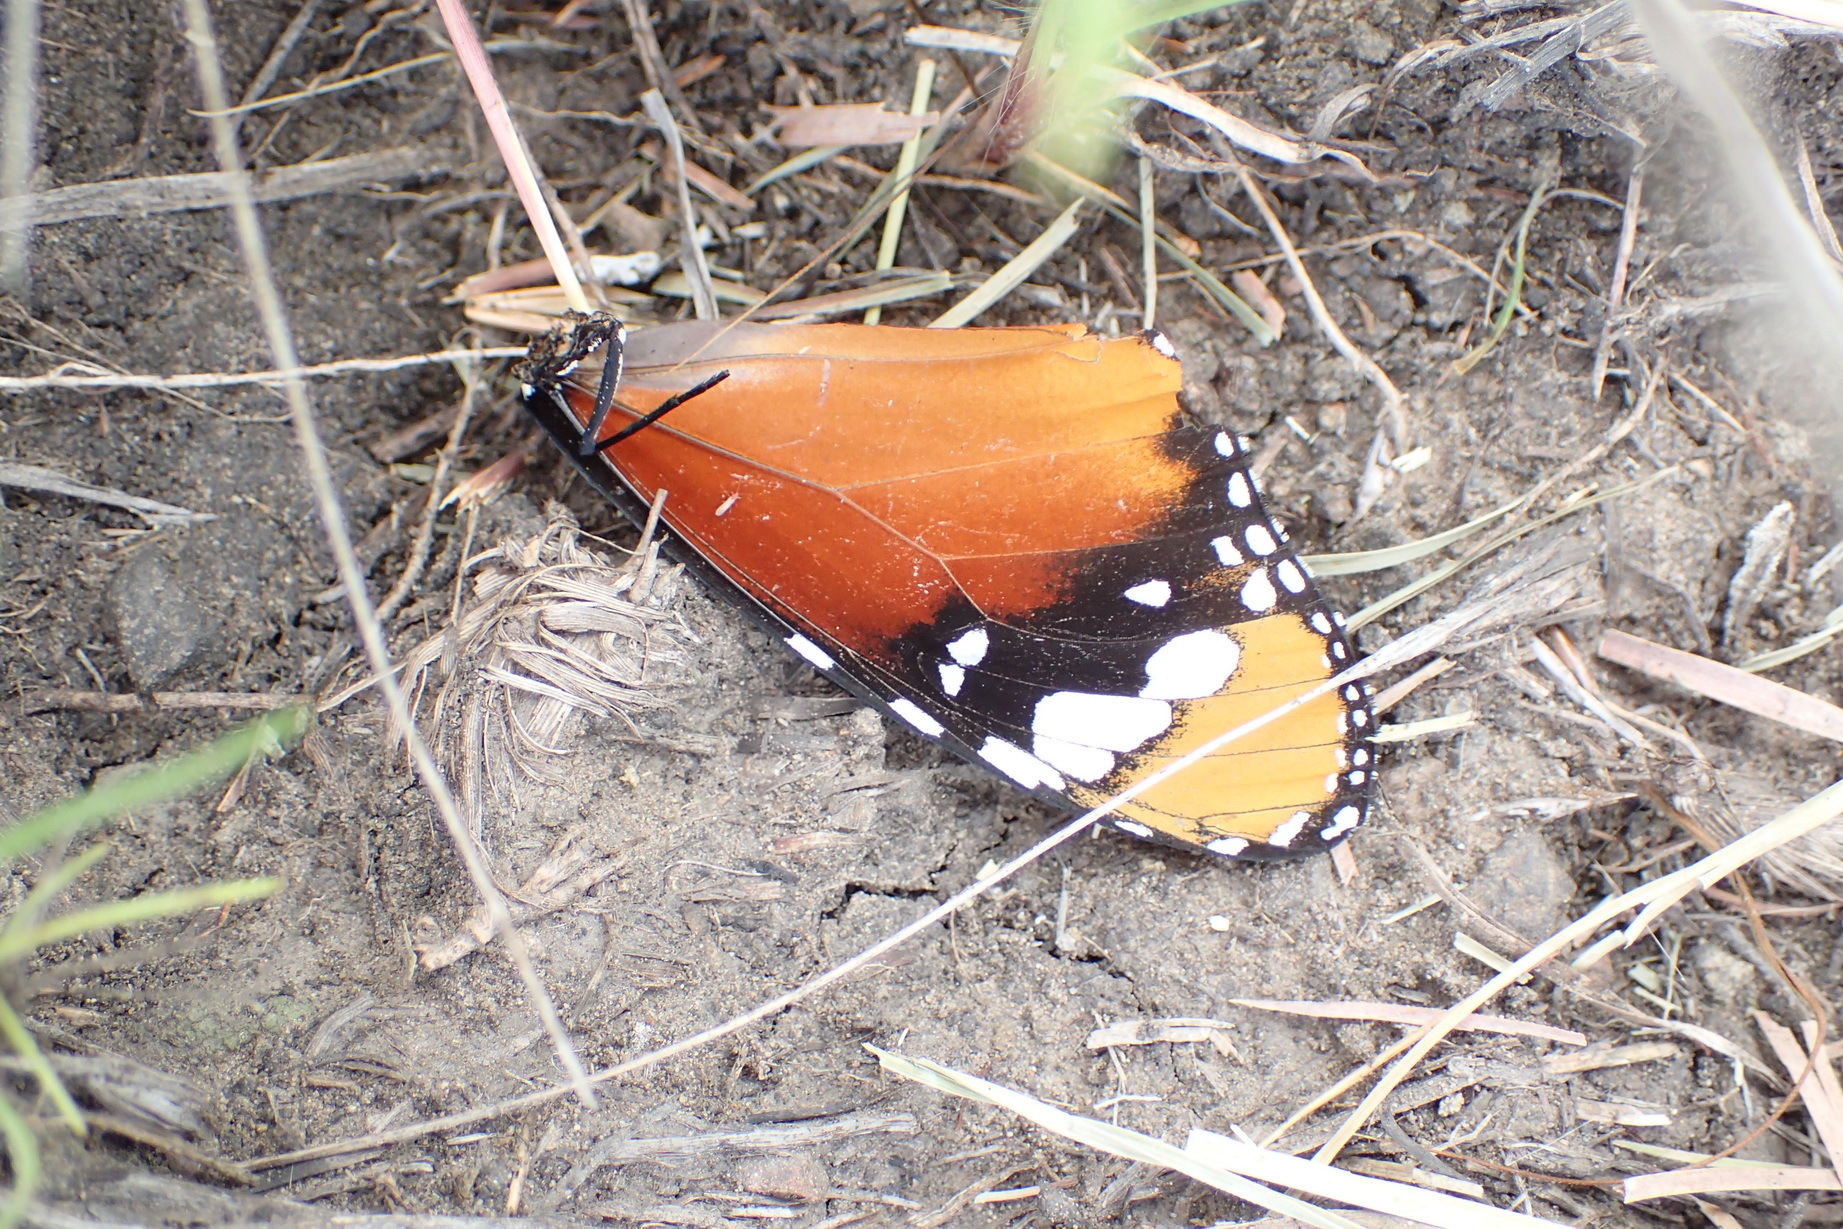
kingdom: Animalia
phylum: Arthropoda
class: Insecta
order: Lepidoptera
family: Nymphalidae
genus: Danaus
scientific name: Danaus chrysippus
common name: Plain tiger
